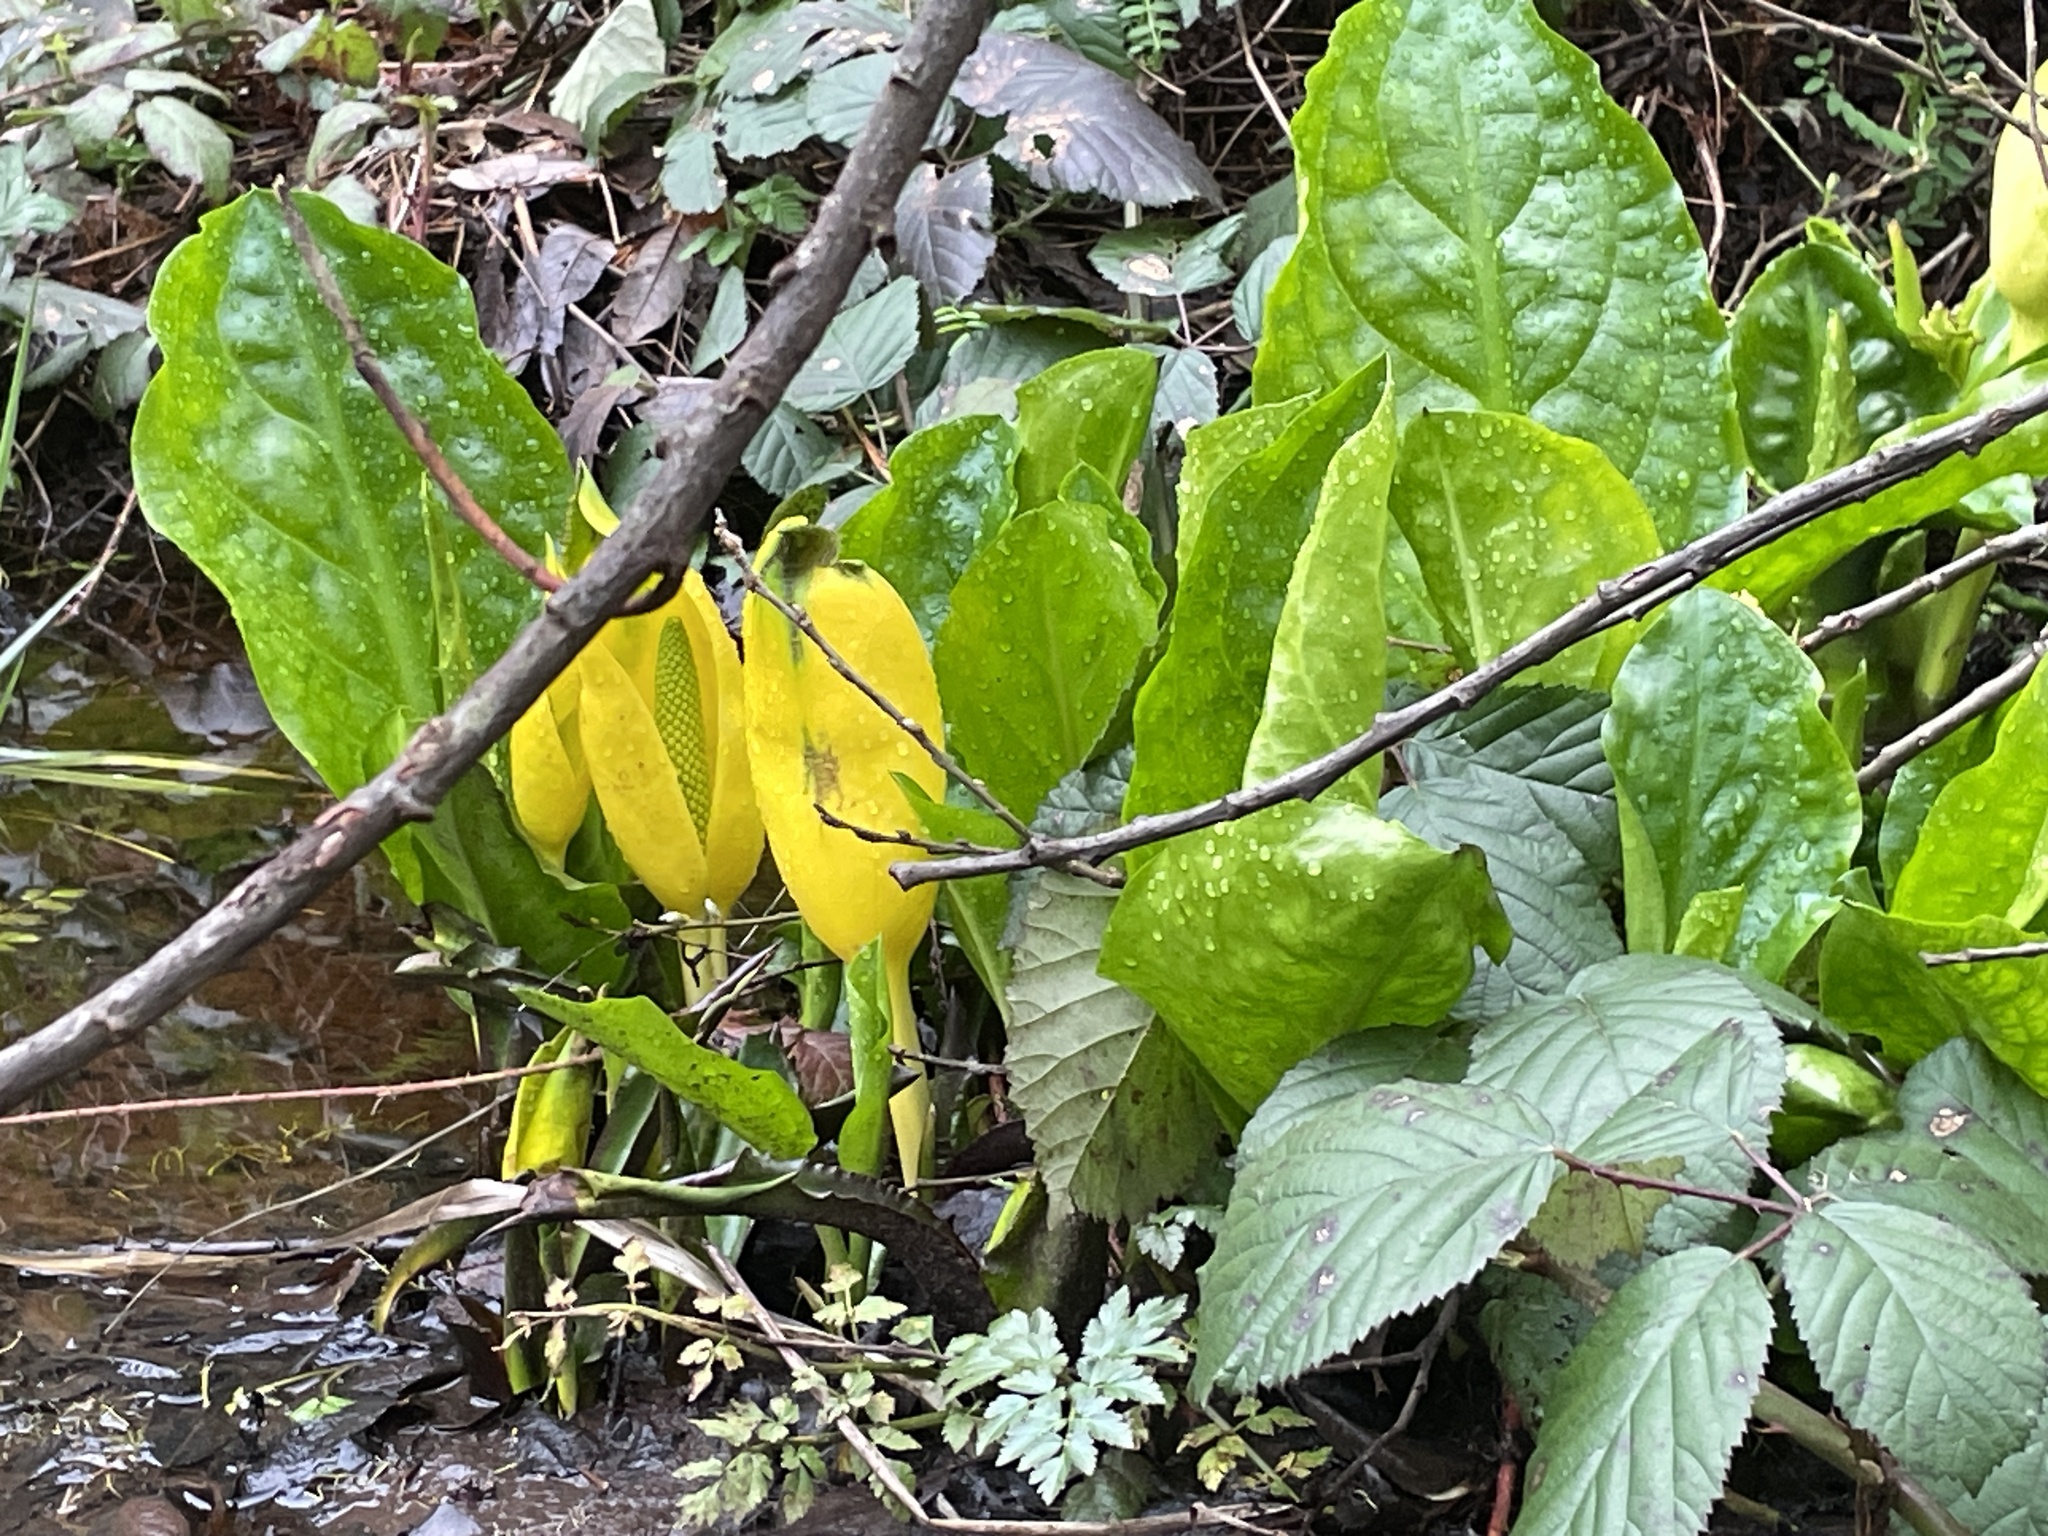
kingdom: Plantae
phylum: Tracheophyta
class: Liliopsida
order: Alismatales
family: Araceae
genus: Lysichiton
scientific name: Lysichiton americanus
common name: American skunk cabbage
